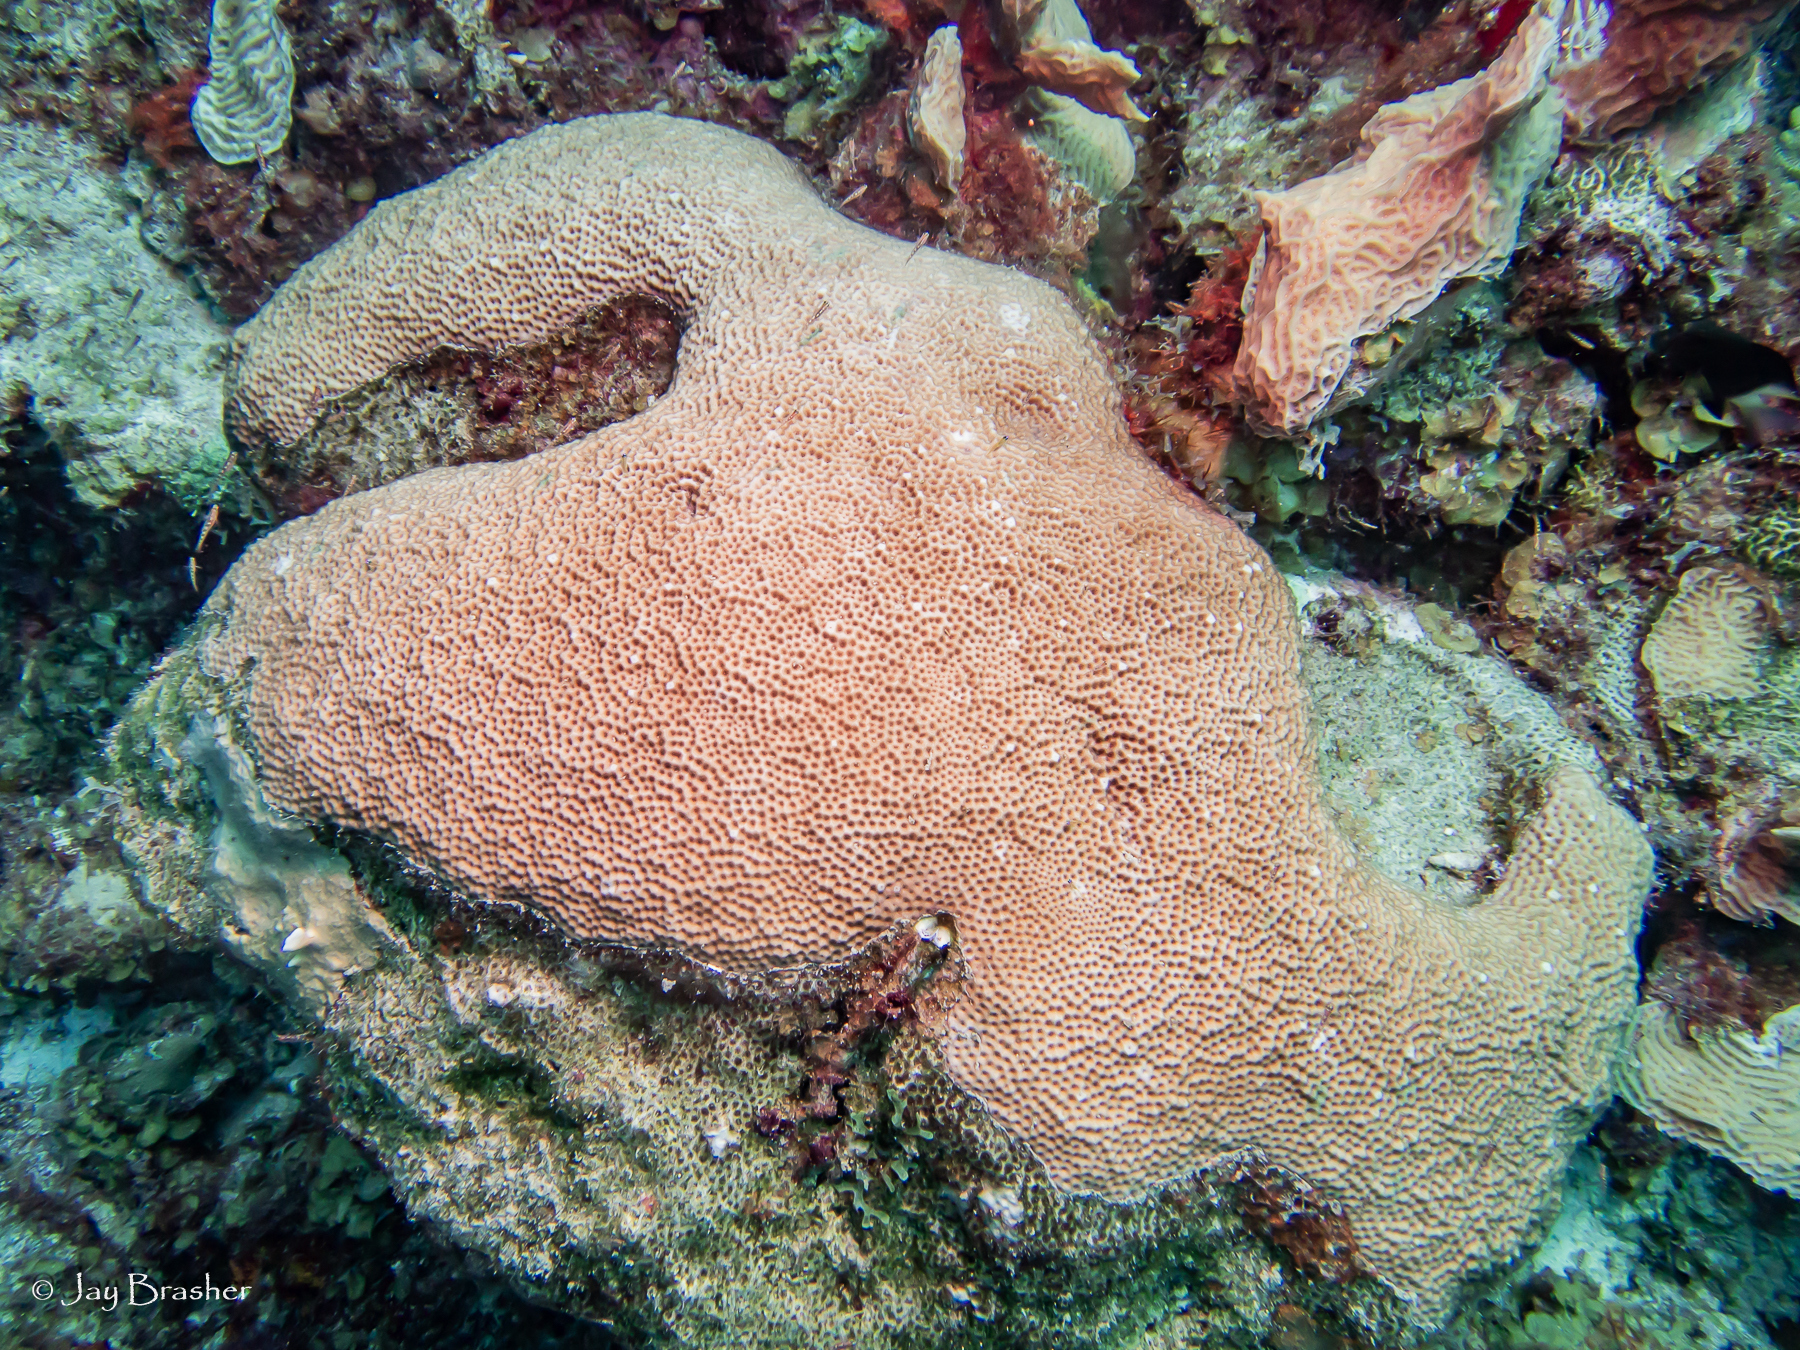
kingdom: Animalia
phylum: Cnidaria
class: Anthozoa
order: Scleractinia
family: Rhizangiidae
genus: Siderastrea
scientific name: Siderastrea siderea
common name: Massive starlet coral
